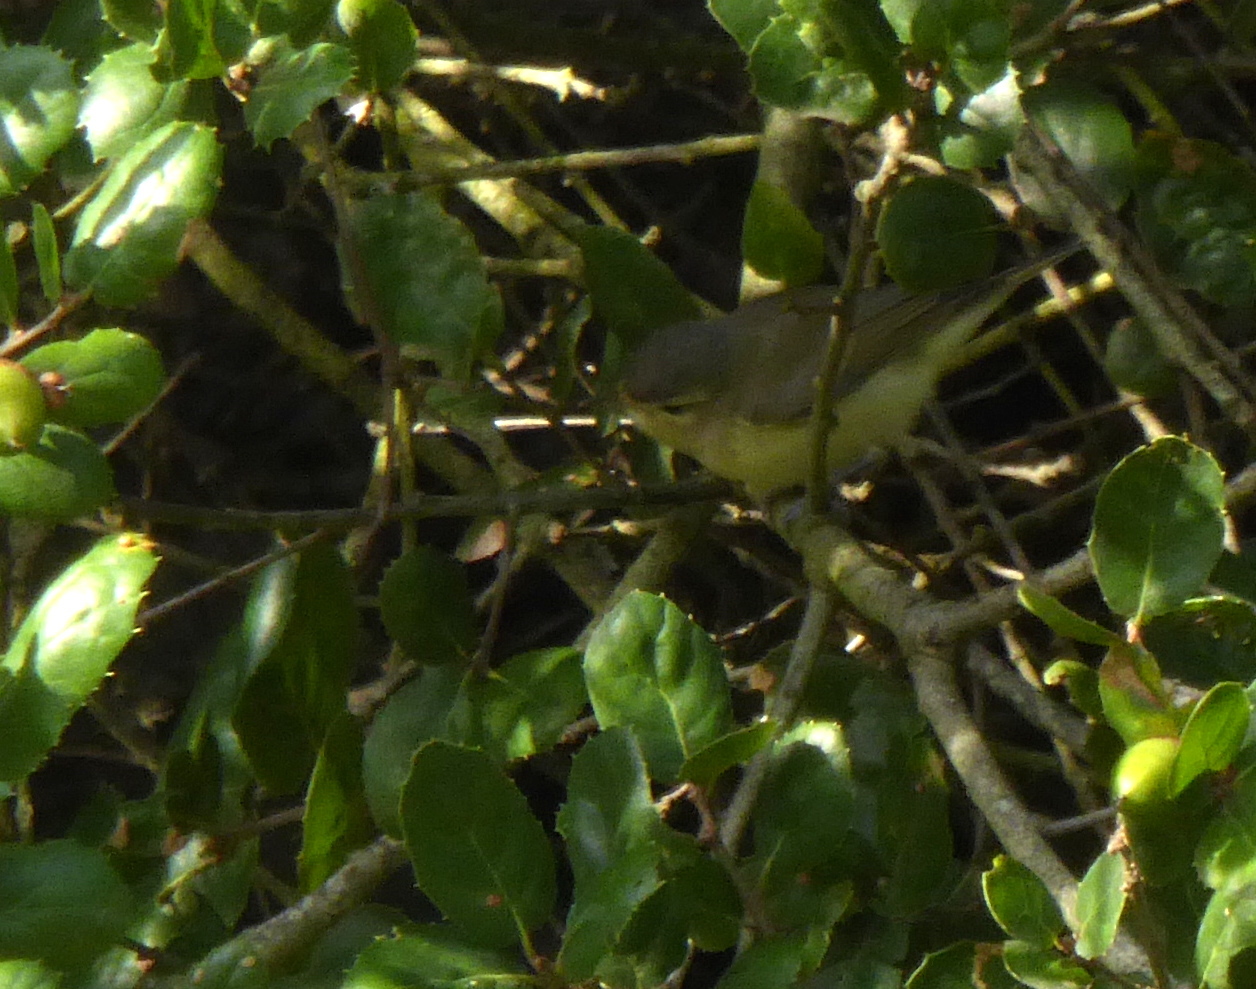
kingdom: Animalia
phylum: Chordata
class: Aves
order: Passeriformes
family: Vireonidae
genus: Vireo
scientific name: Vireo gilvus
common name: Warbling vireo
